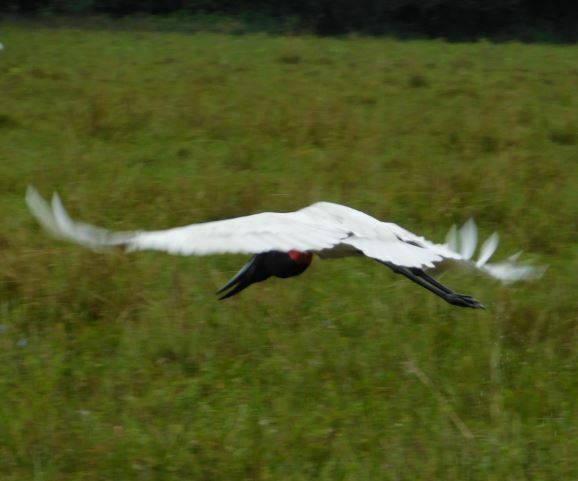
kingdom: Animalia
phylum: Chordata
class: Aves
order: Ciconiiformes
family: Ciconiidae
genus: Jabiru
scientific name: Jabiru mycteria
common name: Jabiru
